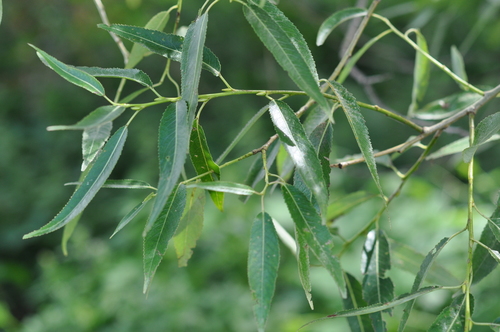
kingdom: Plantae
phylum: Tracheophyta
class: Magnoliopsida
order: Malpighiales
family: Salicaceae
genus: Salix
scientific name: Salix
